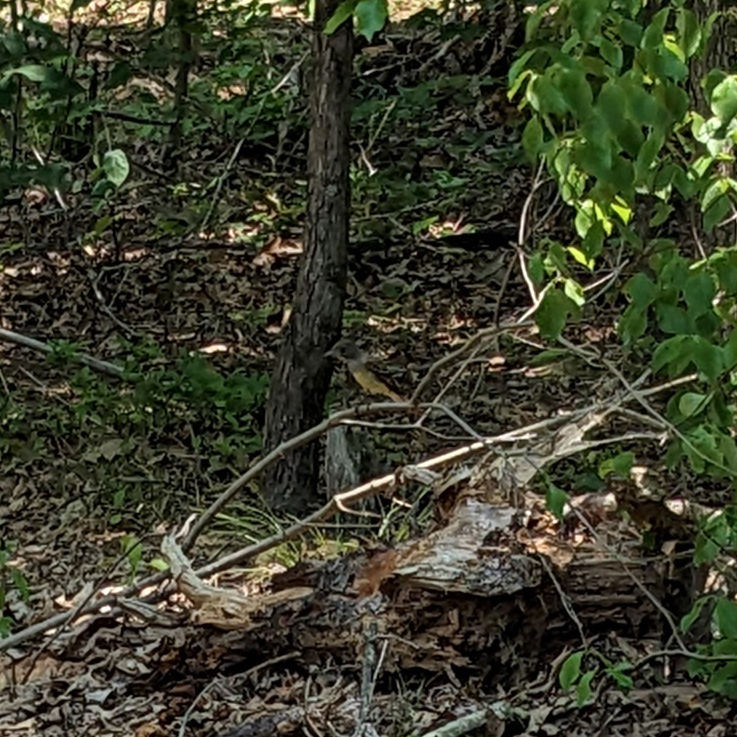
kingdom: Animalia
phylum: Chordata
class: Aves
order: Passeriformes
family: Tyrannidae
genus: Myiarchus
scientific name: Myiarchus crinitus
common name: Great crested flycatcher
